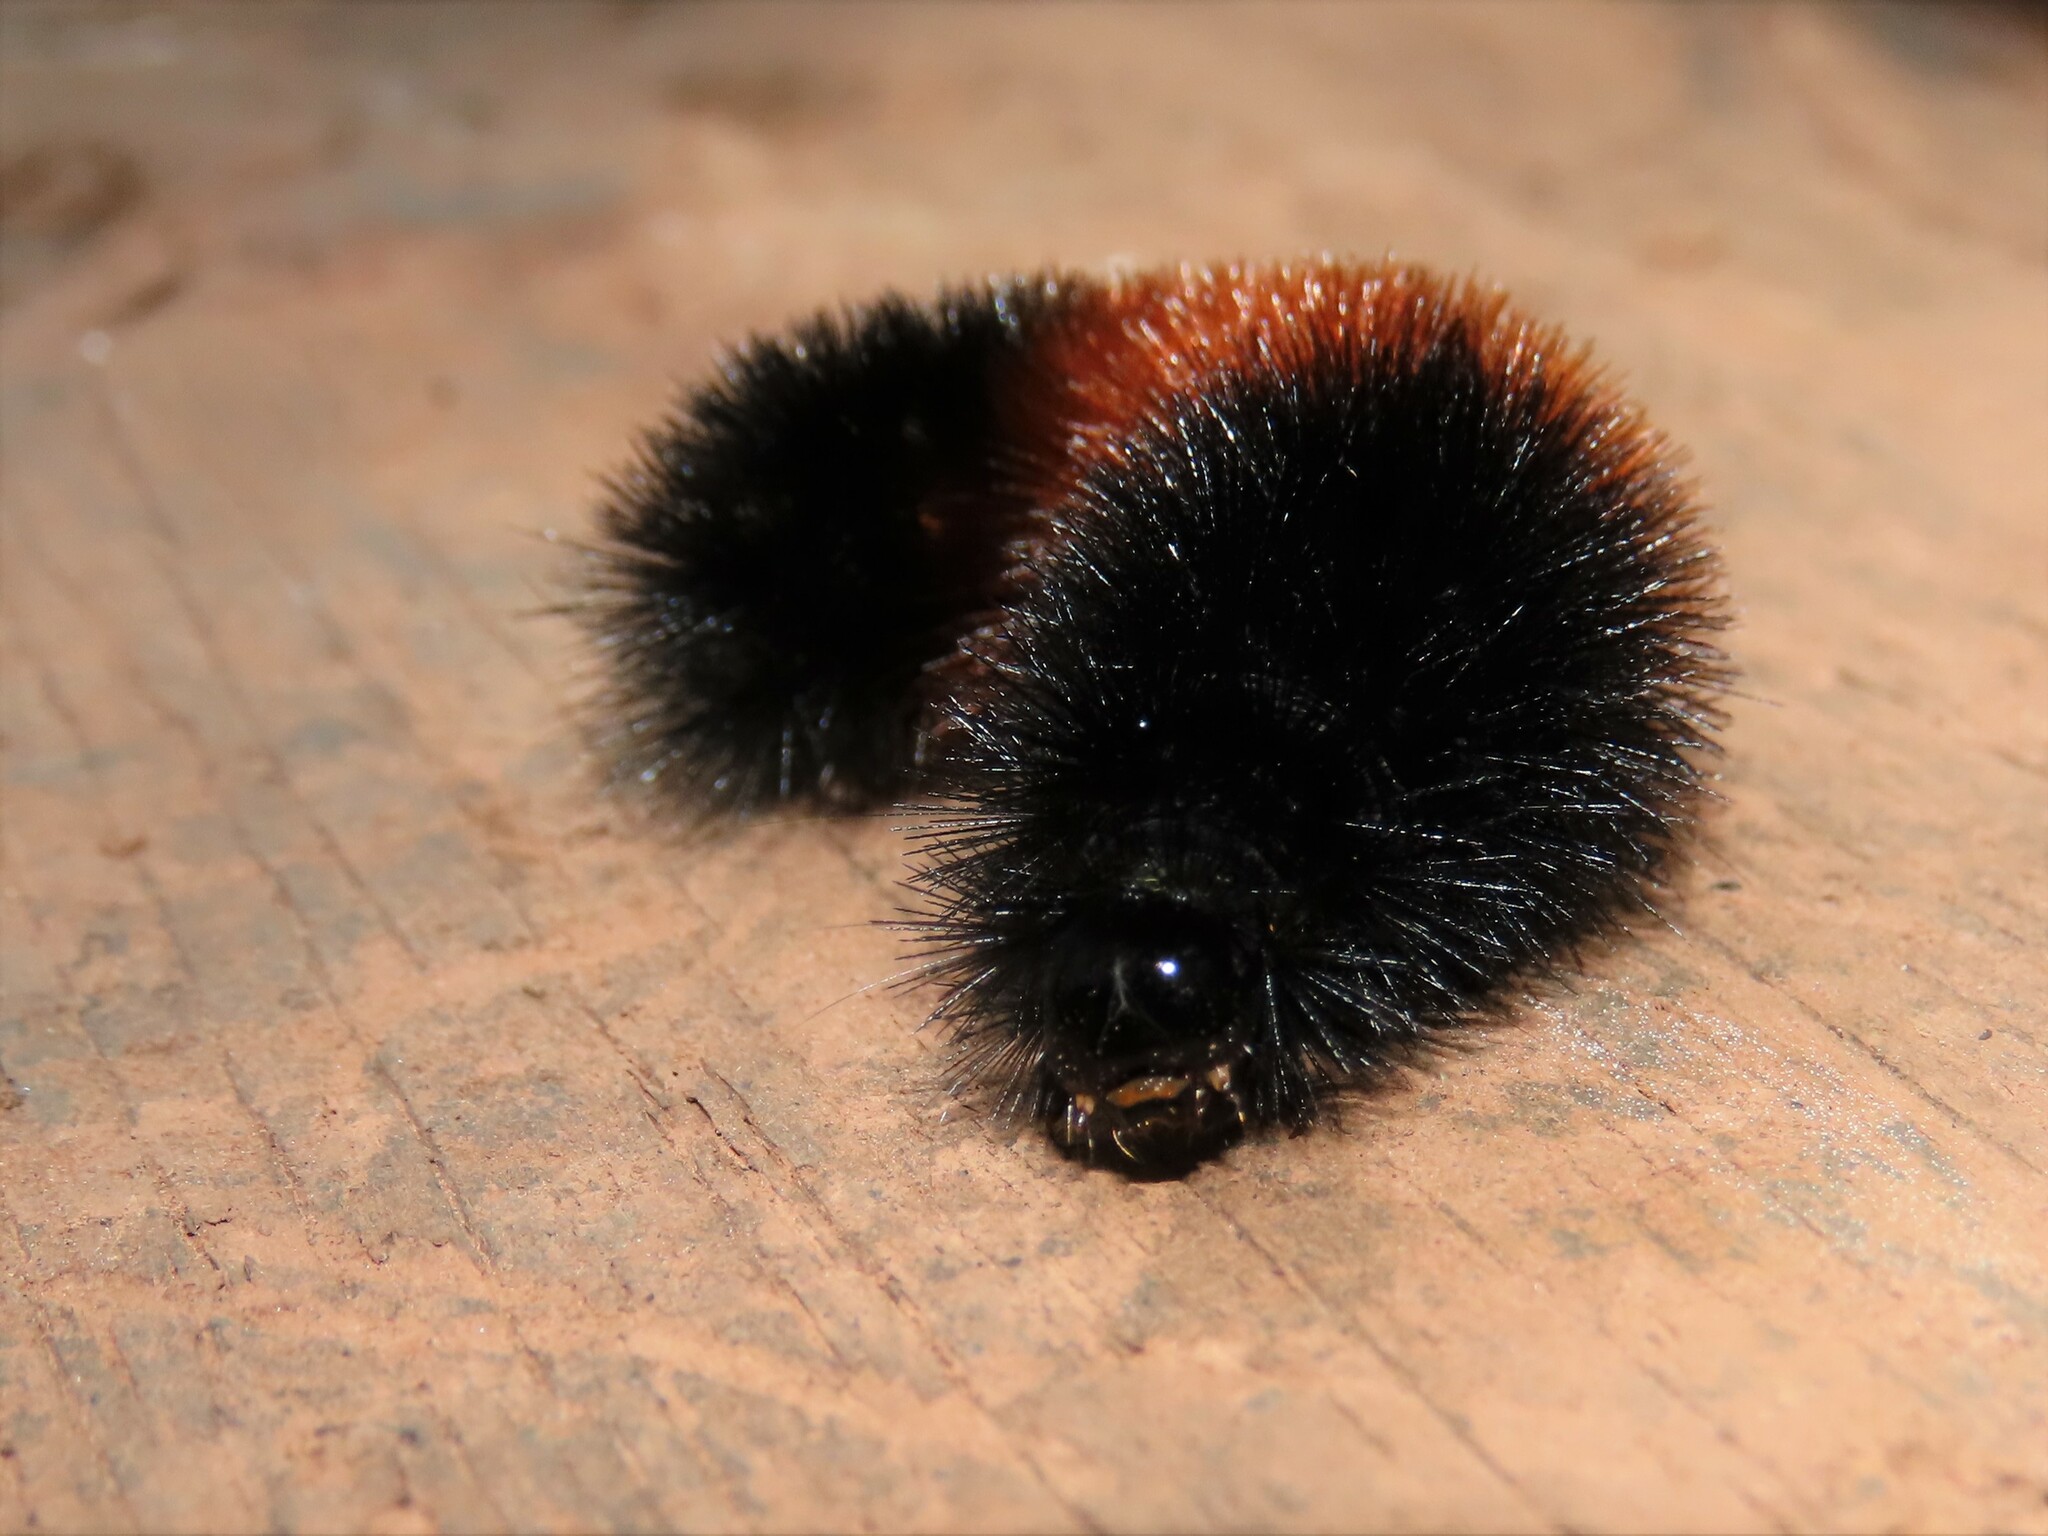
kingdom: Animalia
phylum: Arthropoda
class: Insecta
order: Lepidoptera
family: Erebidae
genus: Pyrrharctia
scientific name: Pyrrharctia isabella
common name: Isabella tiger moth
